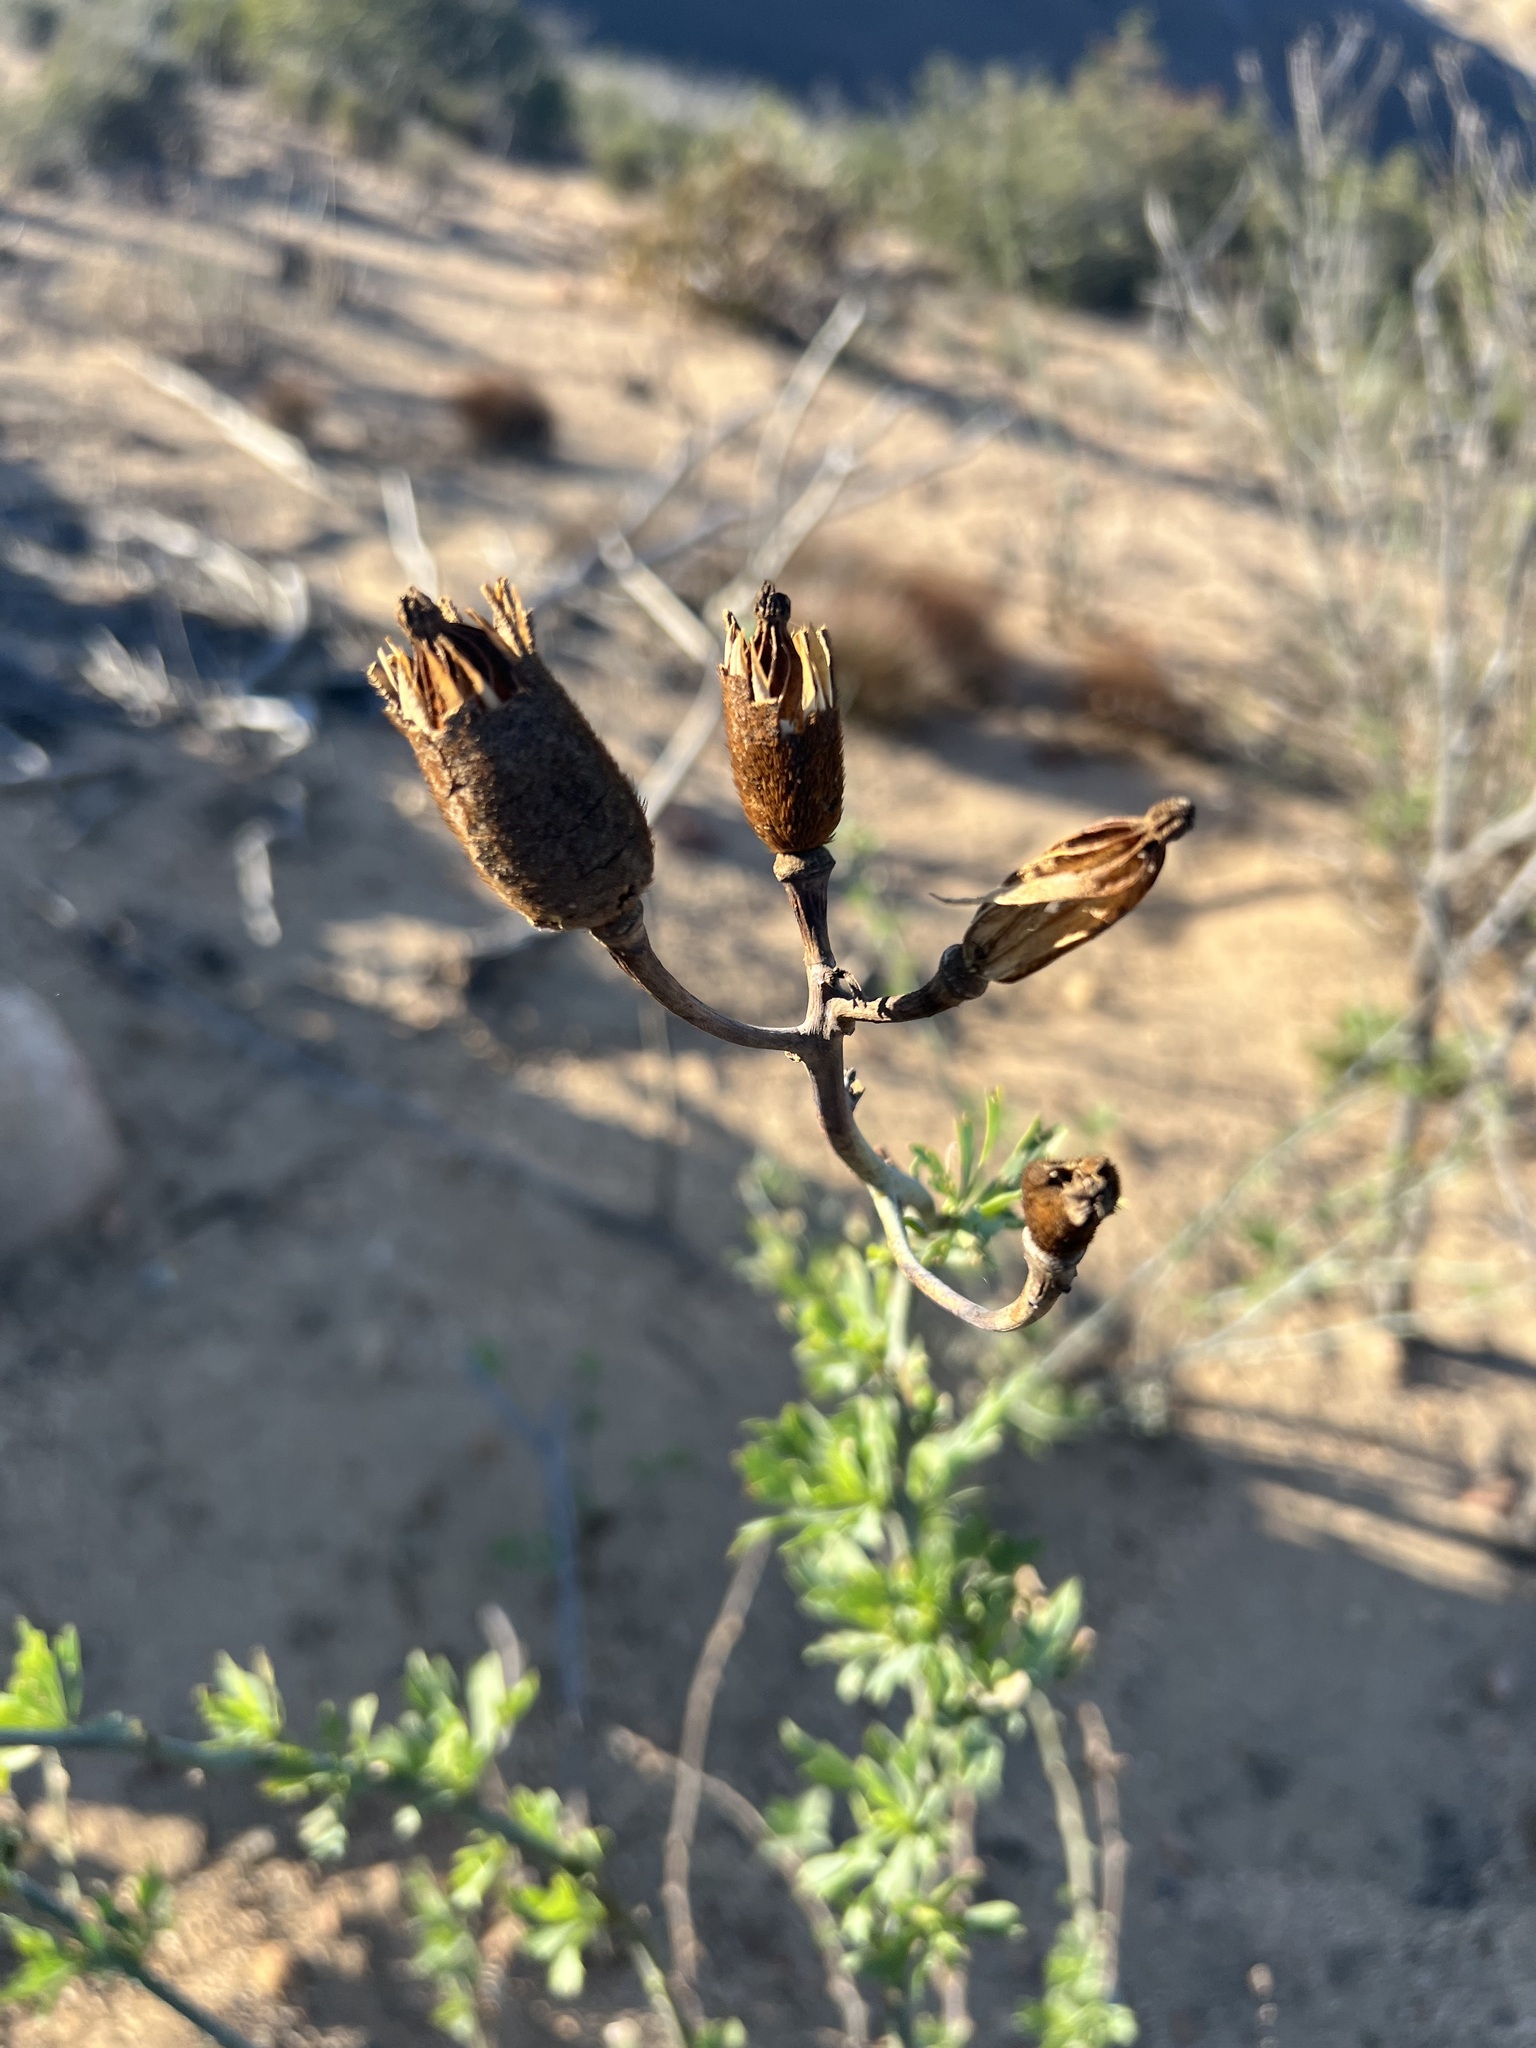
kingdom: Plantae
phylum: Tracheophyta
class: Magnoliopsida
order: Ranunculales
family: Papaveraceae
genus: Romneya
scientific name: Romneya coulteri
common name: California tree-poppy
